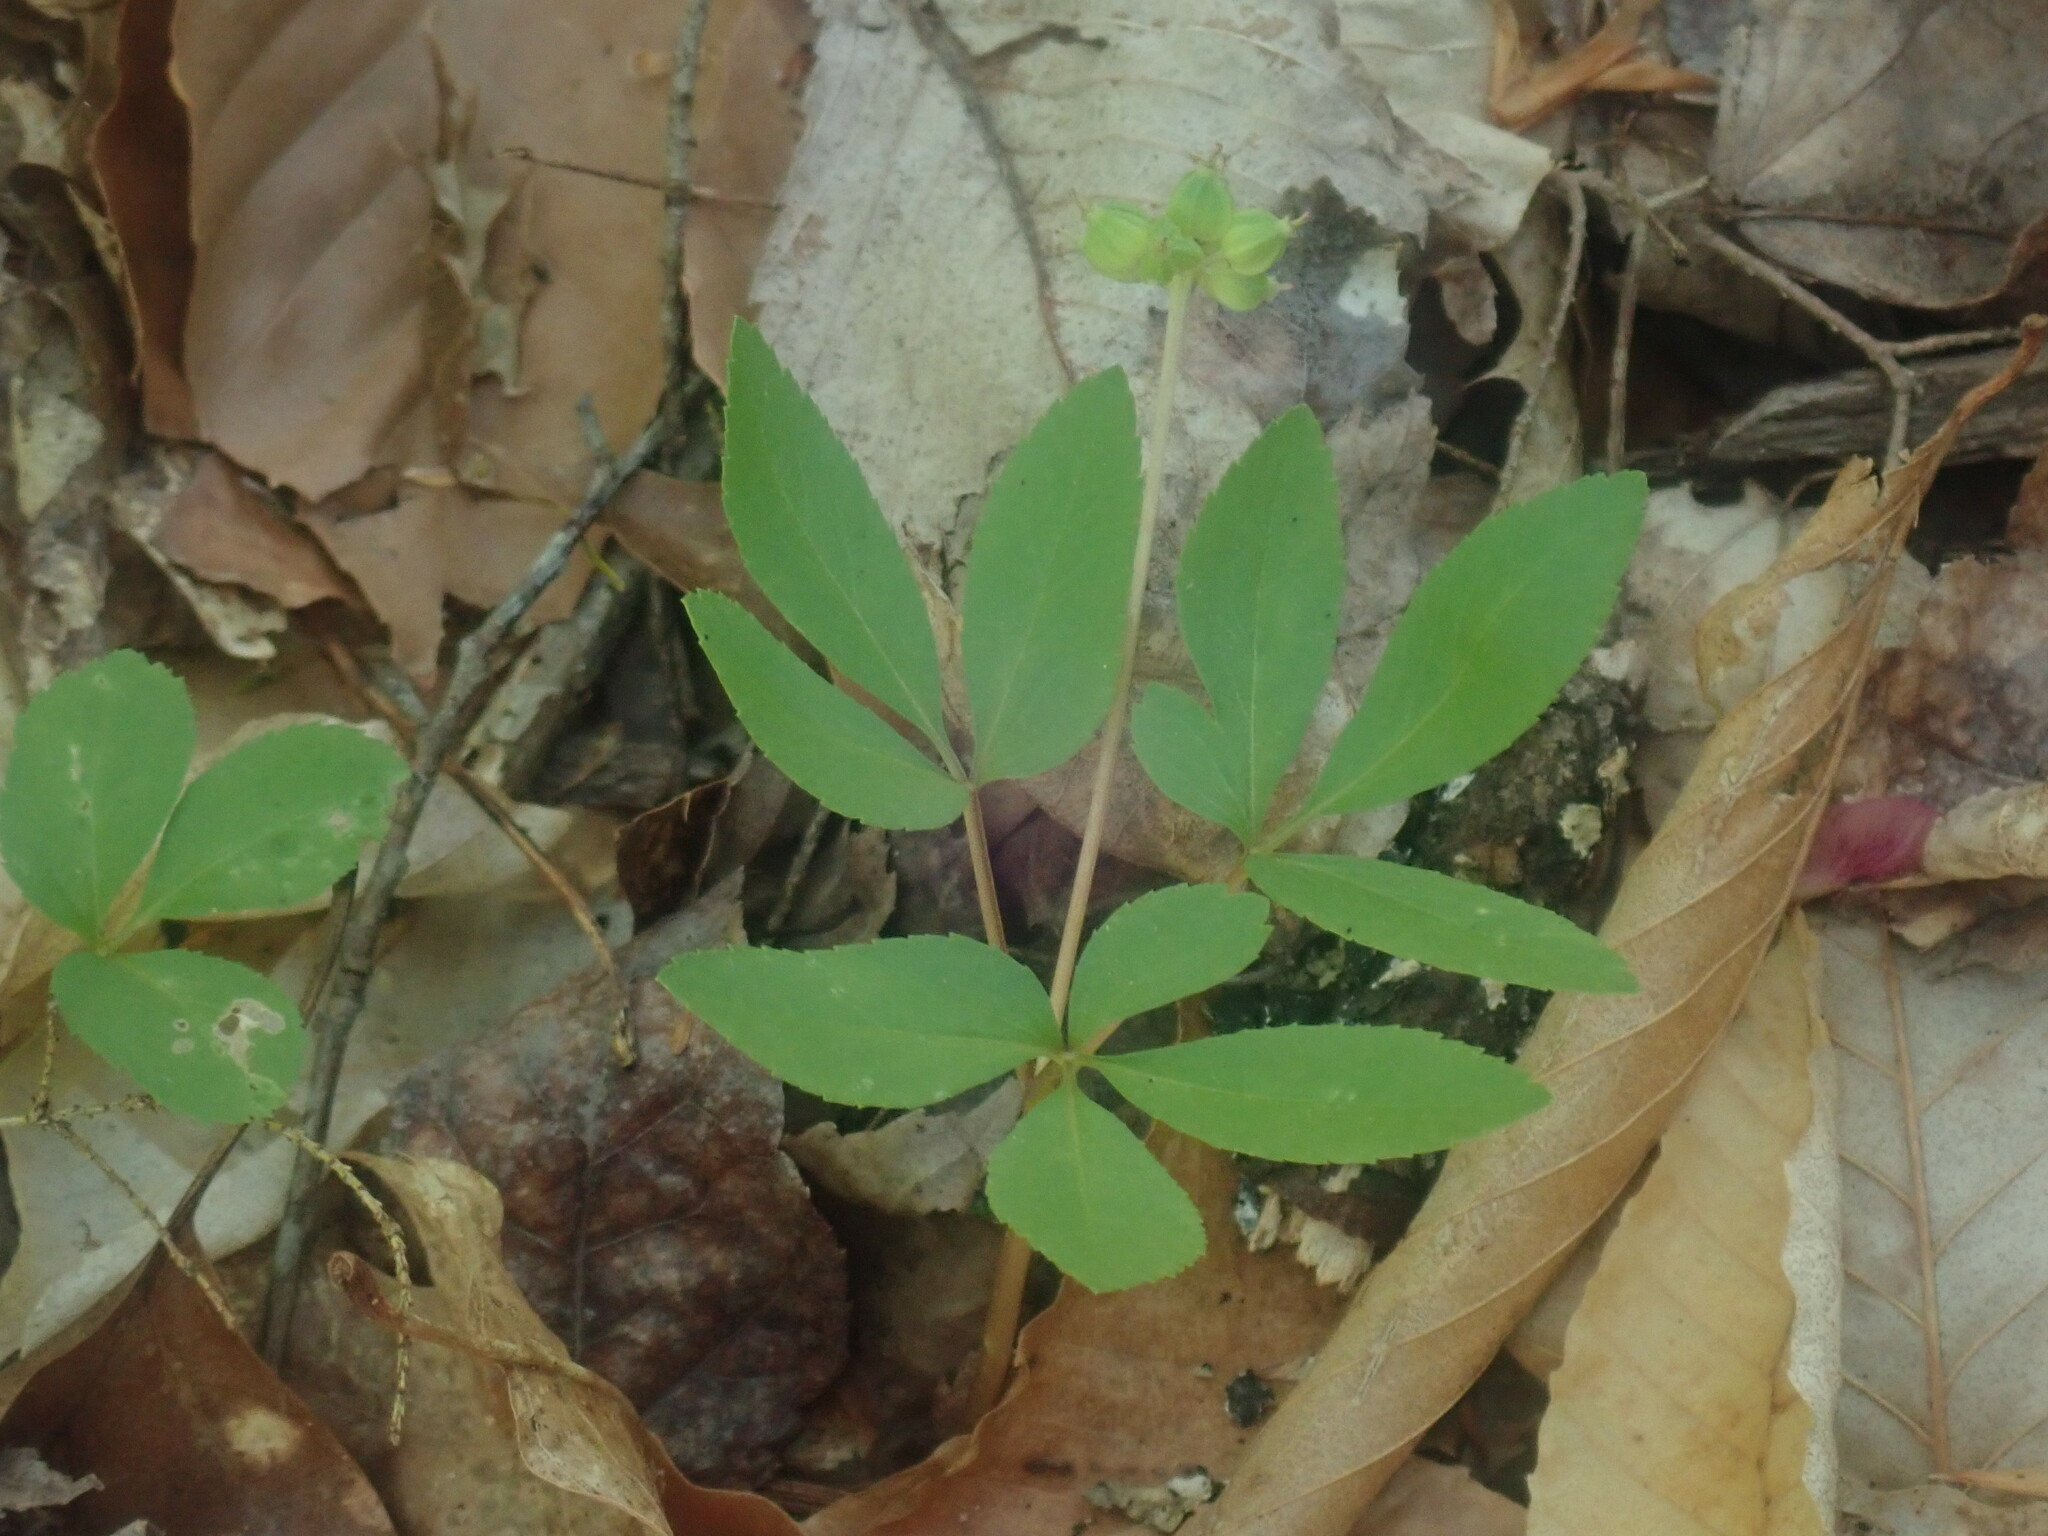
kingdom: Plantae
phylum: Tracheophyta
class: Magnoliopsida
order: Apiales
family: Araliaceae
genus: Panax
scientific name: Panax trifolius
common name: Dwarf ginseng
